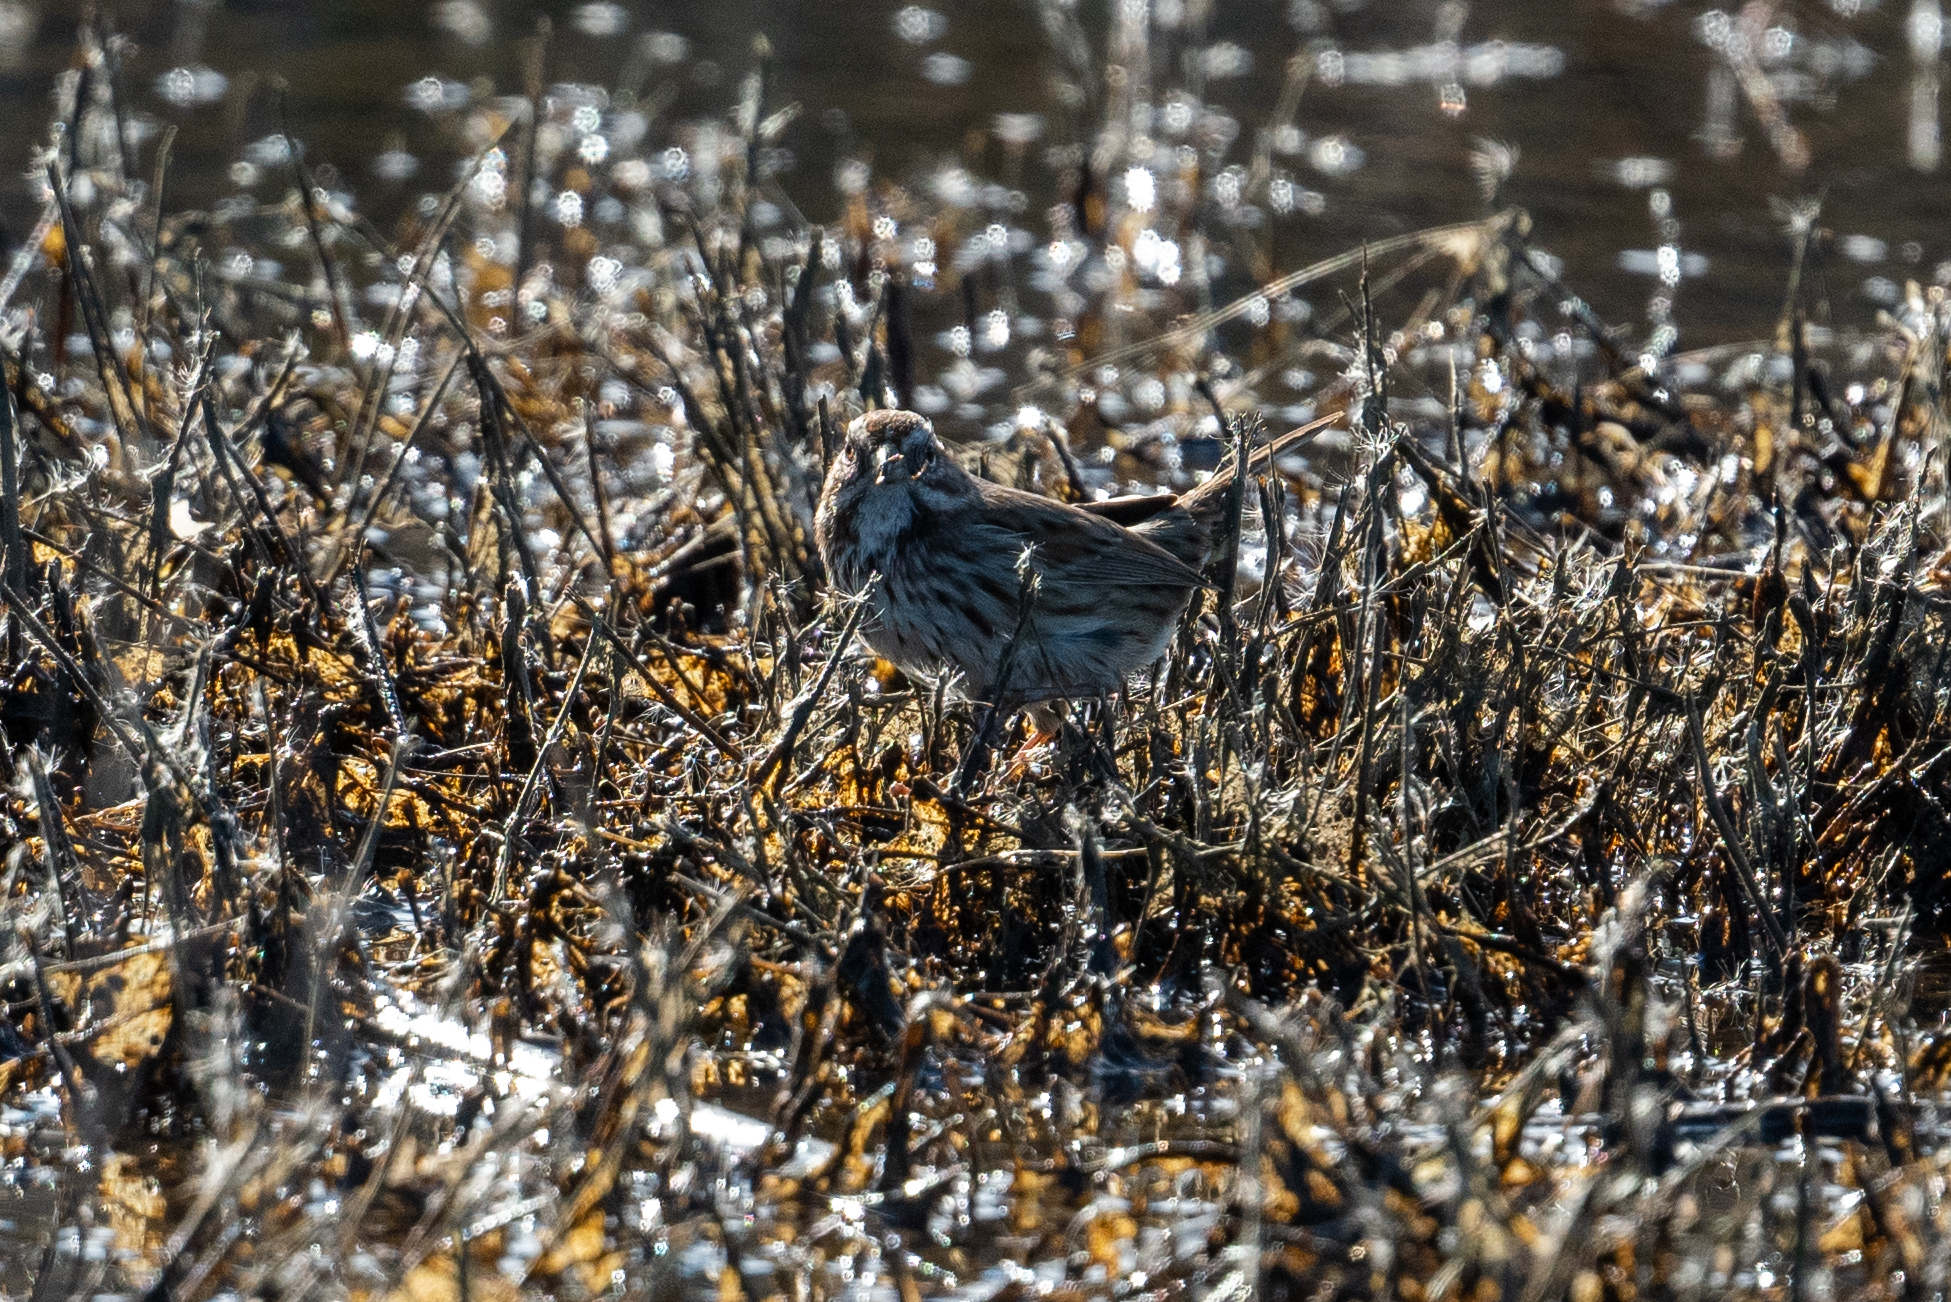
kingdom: Animalia
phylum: Chordata
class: Aves
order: Passeriformes
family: Passerellidae
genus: Melospiza
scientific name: Melospiza melodia
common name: Song sparrow
